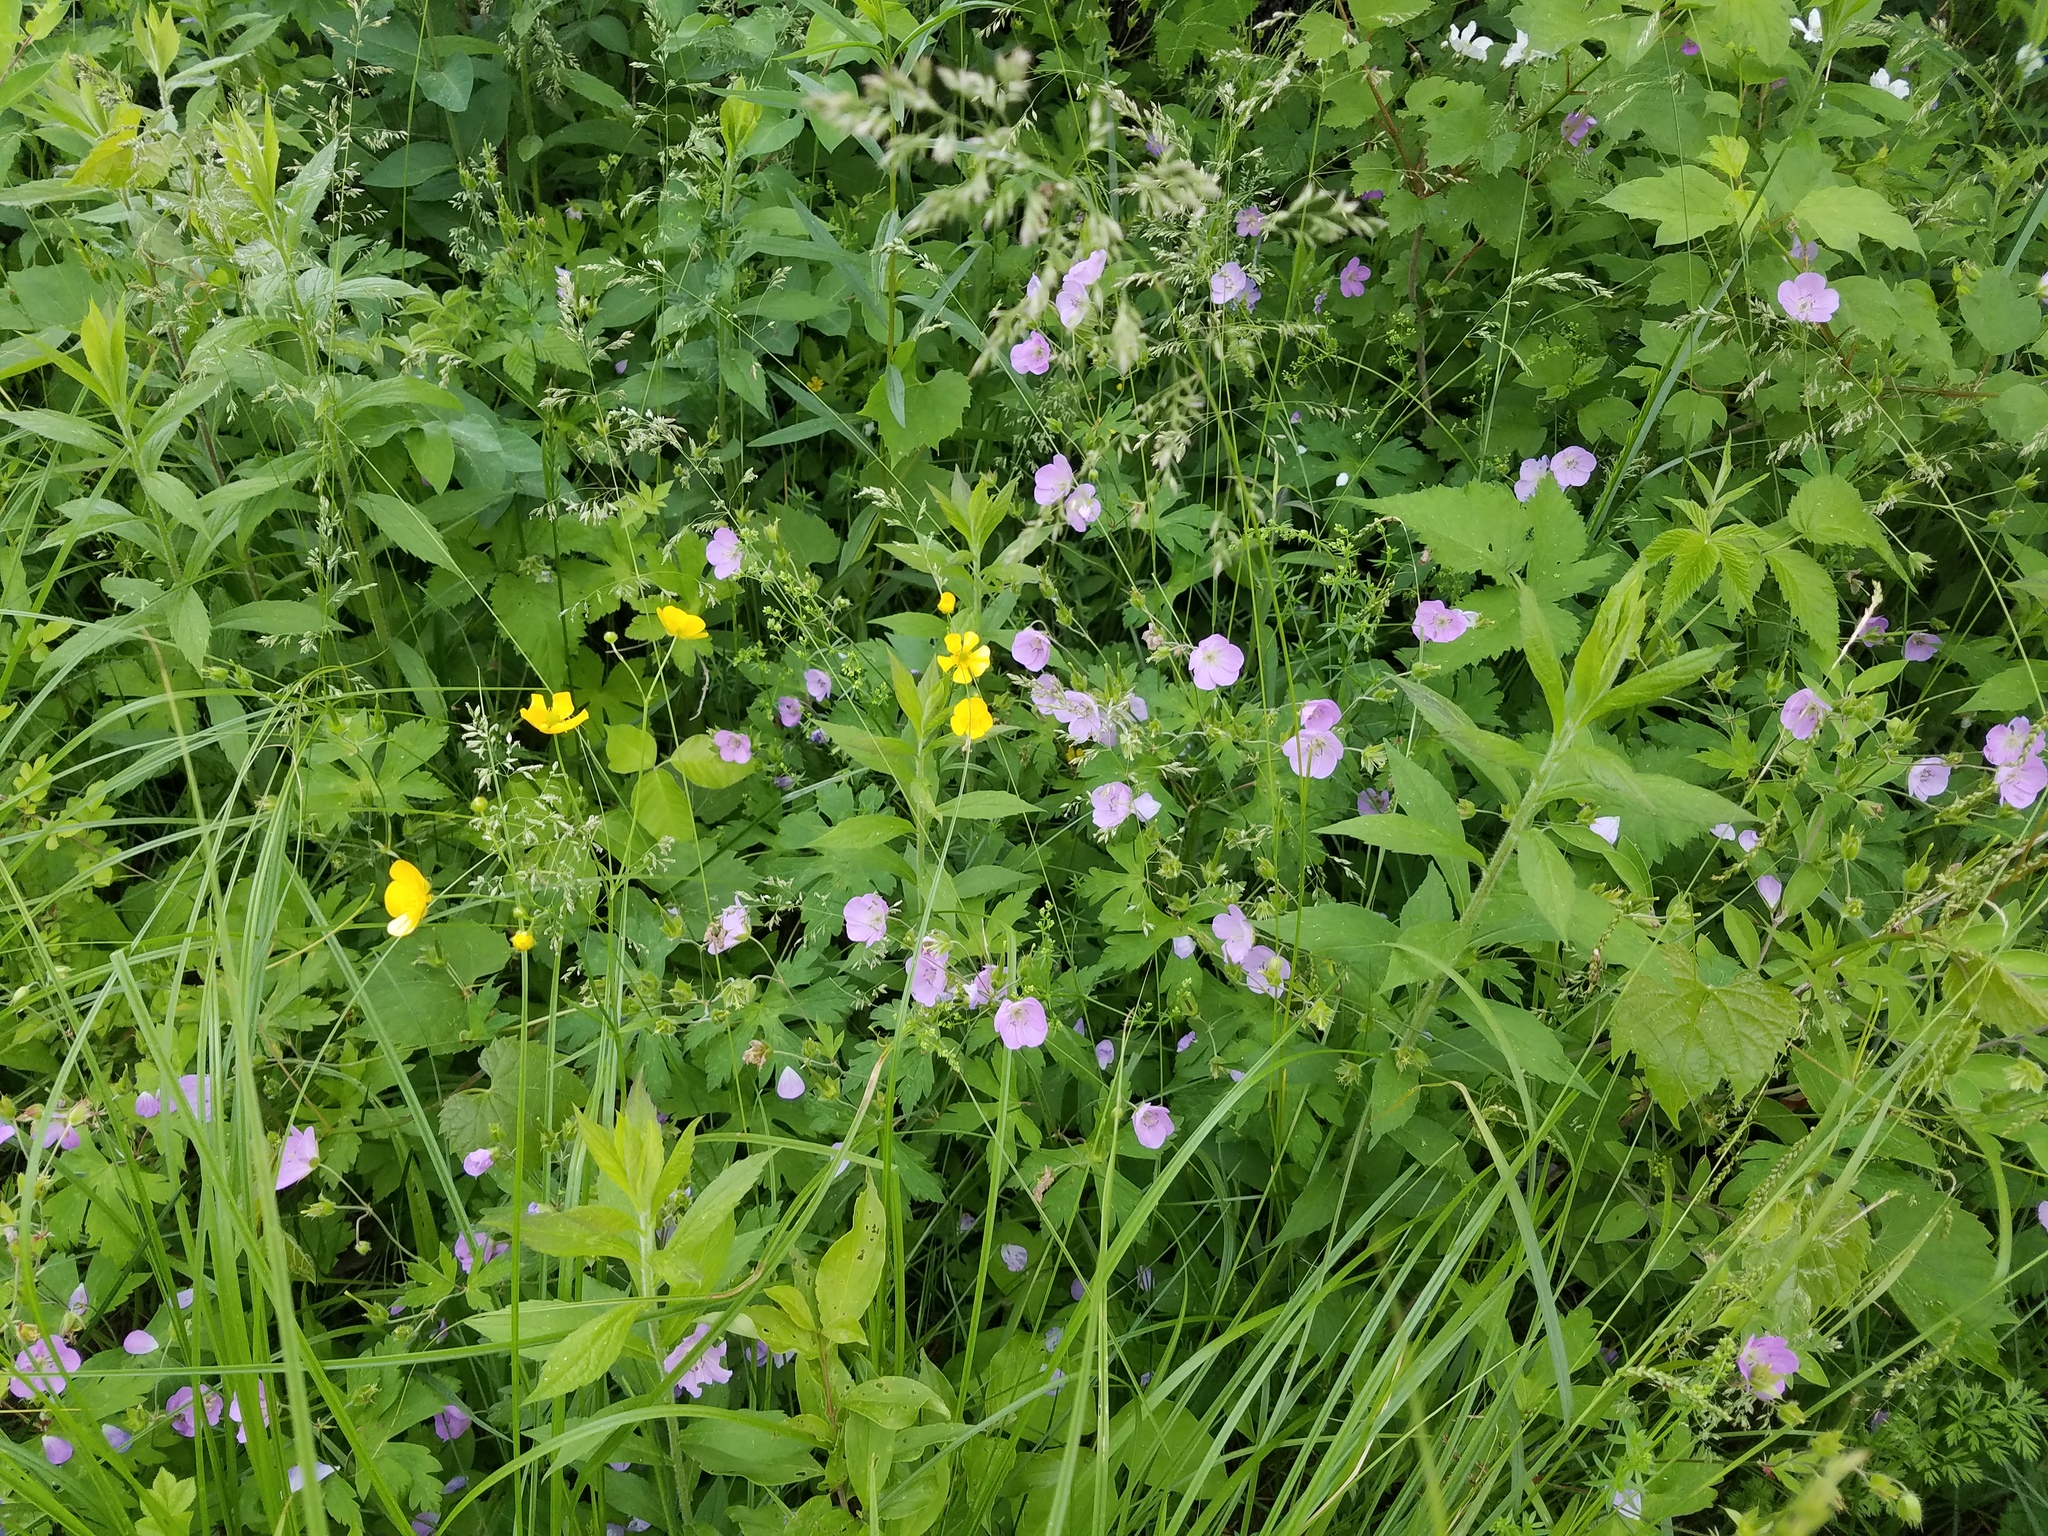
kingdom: Plantae
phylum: Tracheophyta
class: Magnoliopsida
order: Geraniales
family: Geraniaceae
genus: Geranium
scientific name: Geranium maculatum
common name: Spotted geranium
